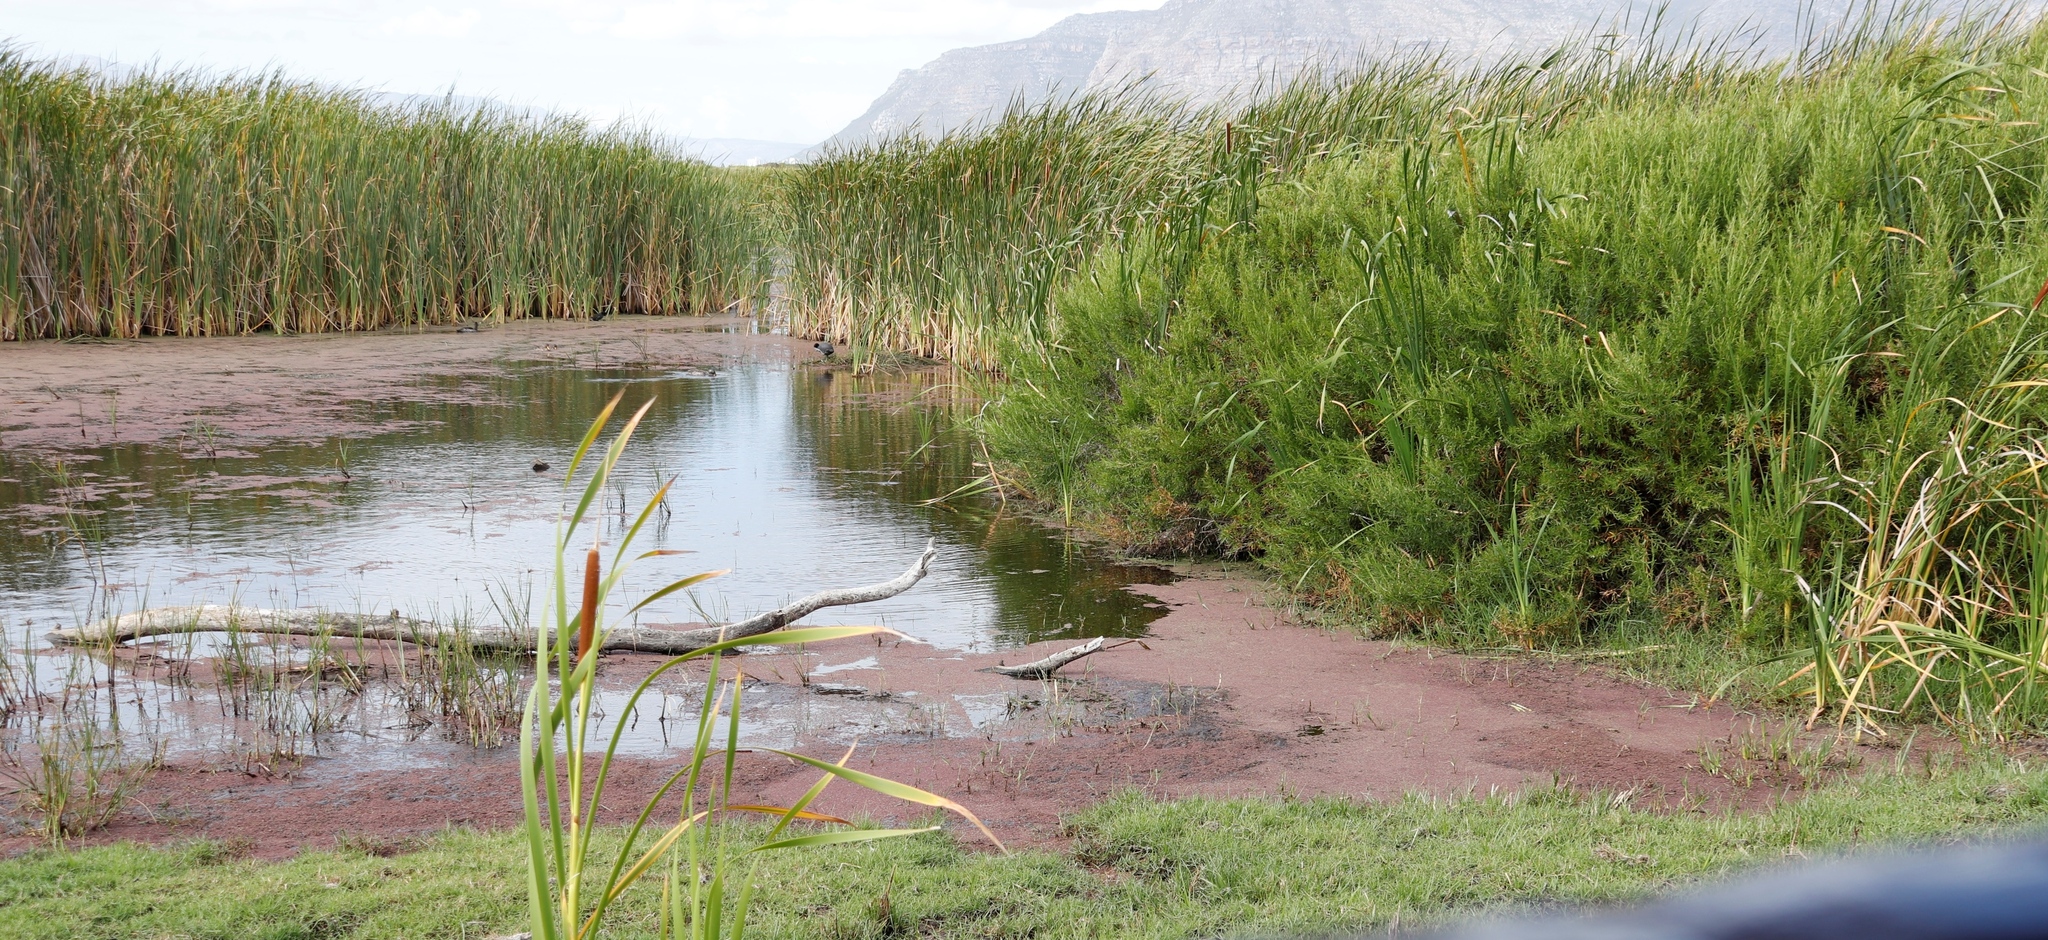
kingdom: Plantae
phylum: Tracheophyta
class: Liliopsida
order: Poales
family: Typhaceae
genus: Typha
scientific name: Typha capensis
